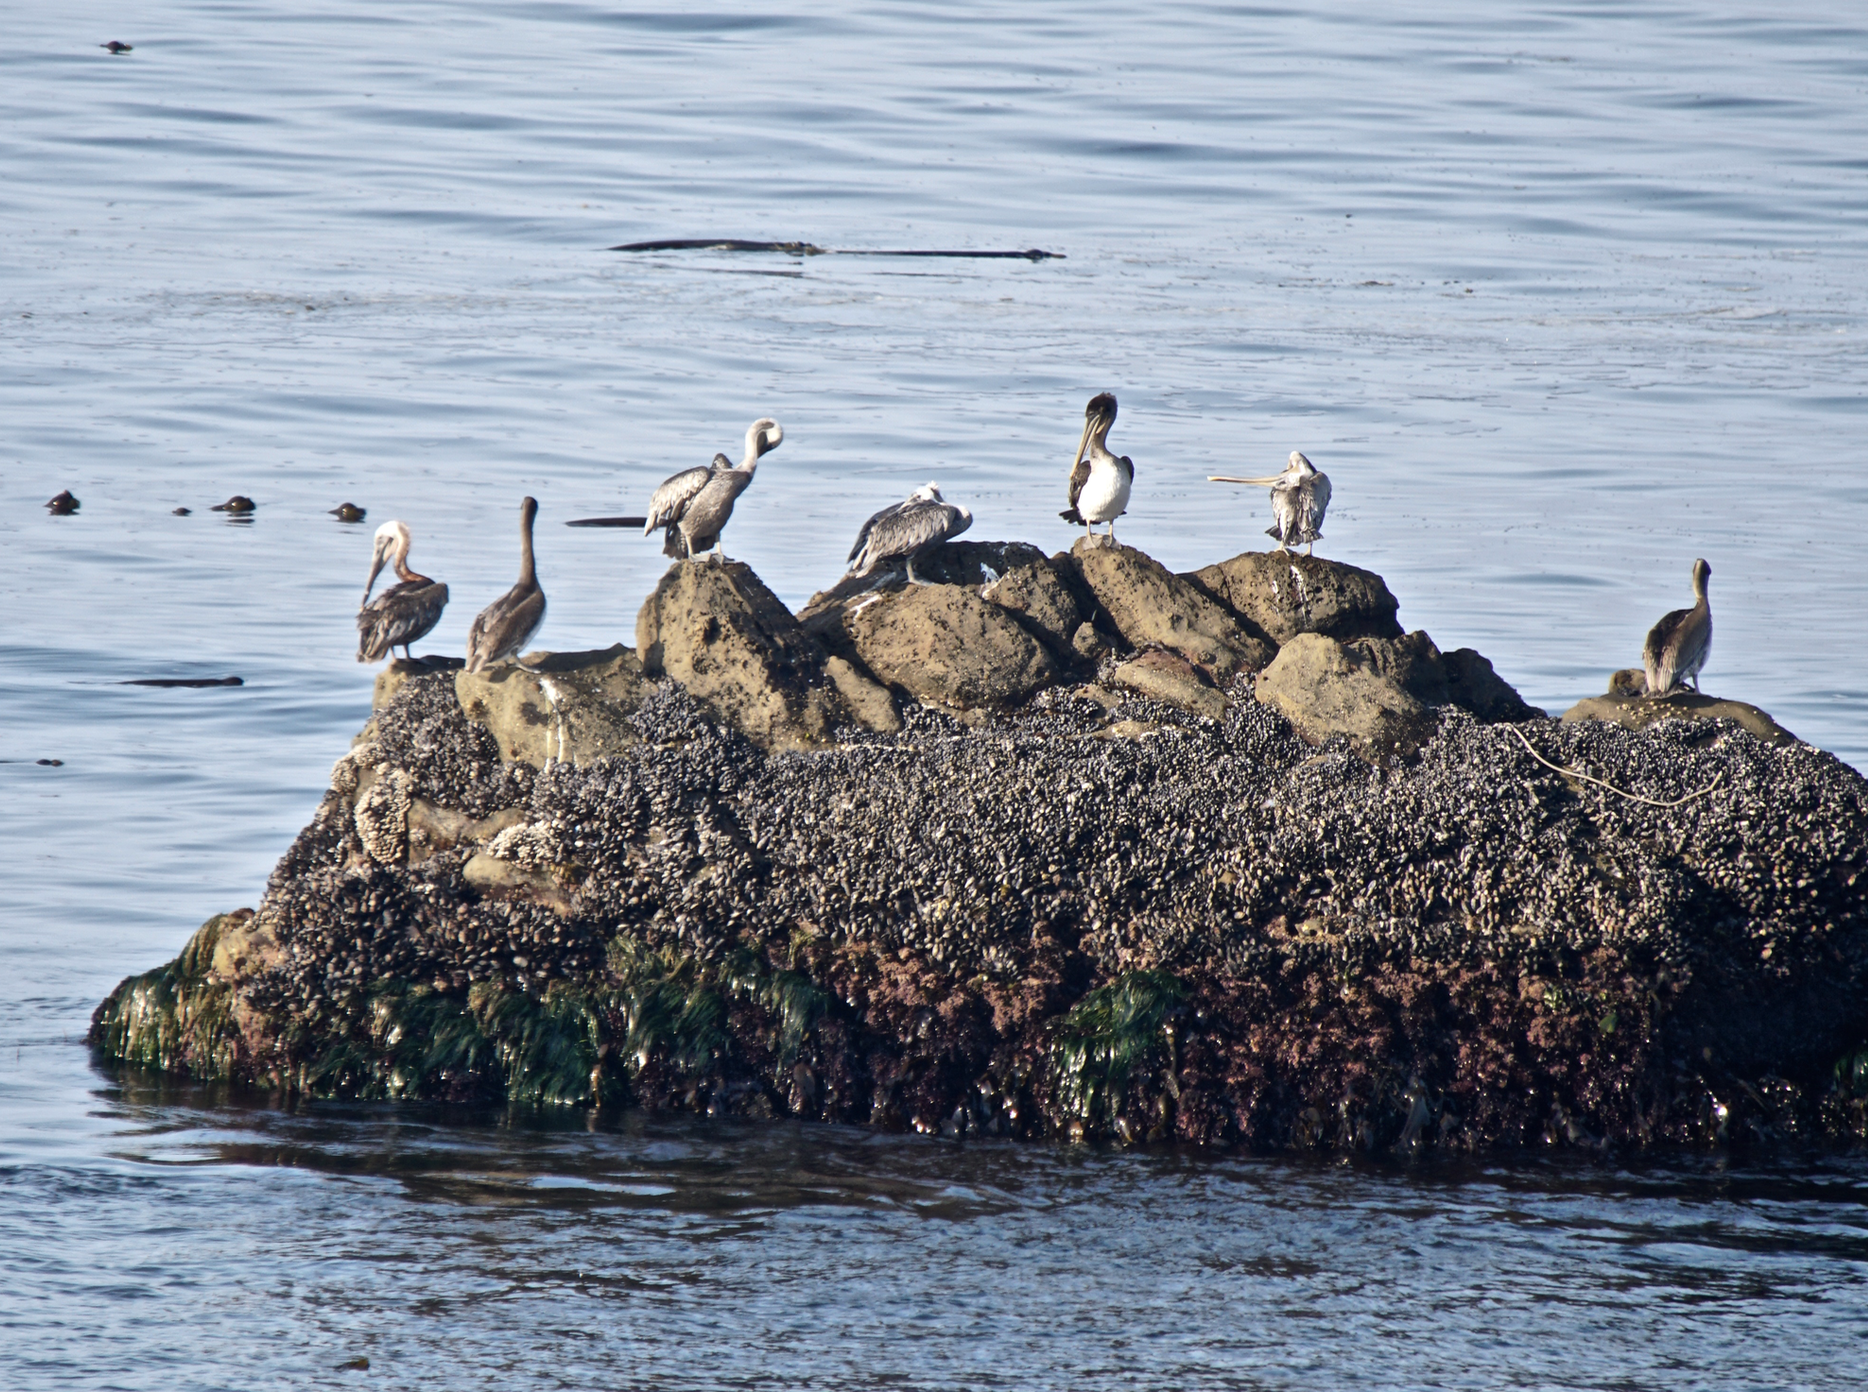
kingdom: Animalia
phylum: Chordata
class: Aves
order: Pelecaniformes
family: Pelecanidae
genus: Pelecanus
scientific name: Pelecanus occidentalis
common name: Brown pelican
